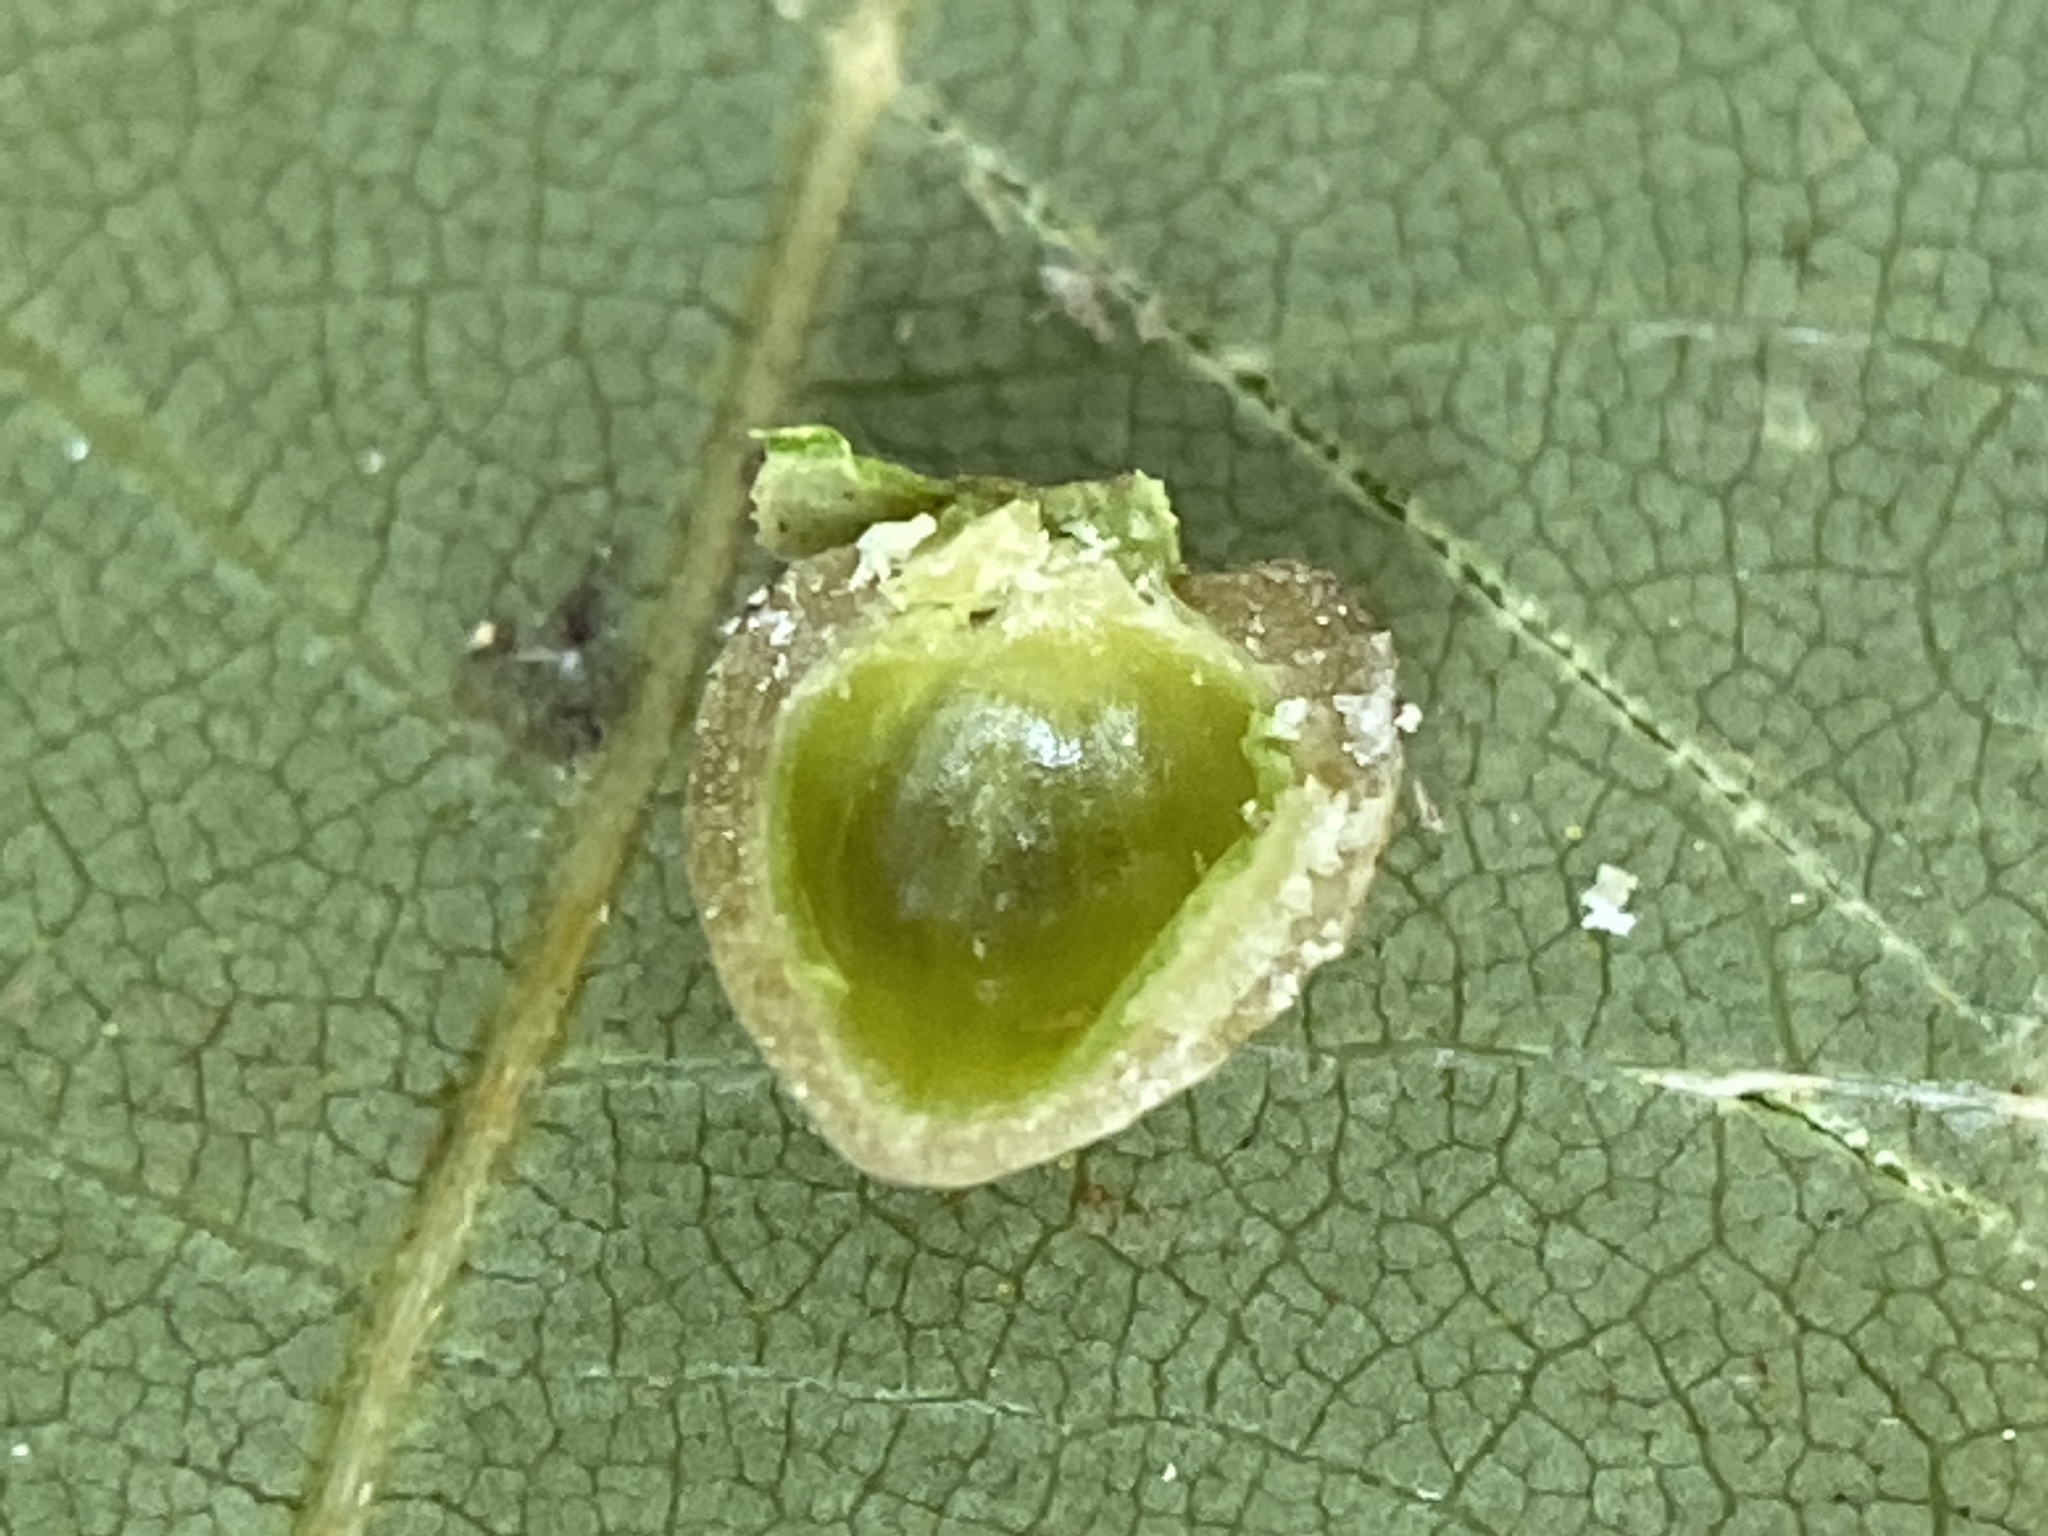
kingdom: Animalia
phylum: Arthropoda
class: Insecta
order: Diptera
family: Cecidomyiidae
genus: Caryomyia
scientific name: Caryomyia caryaecola
